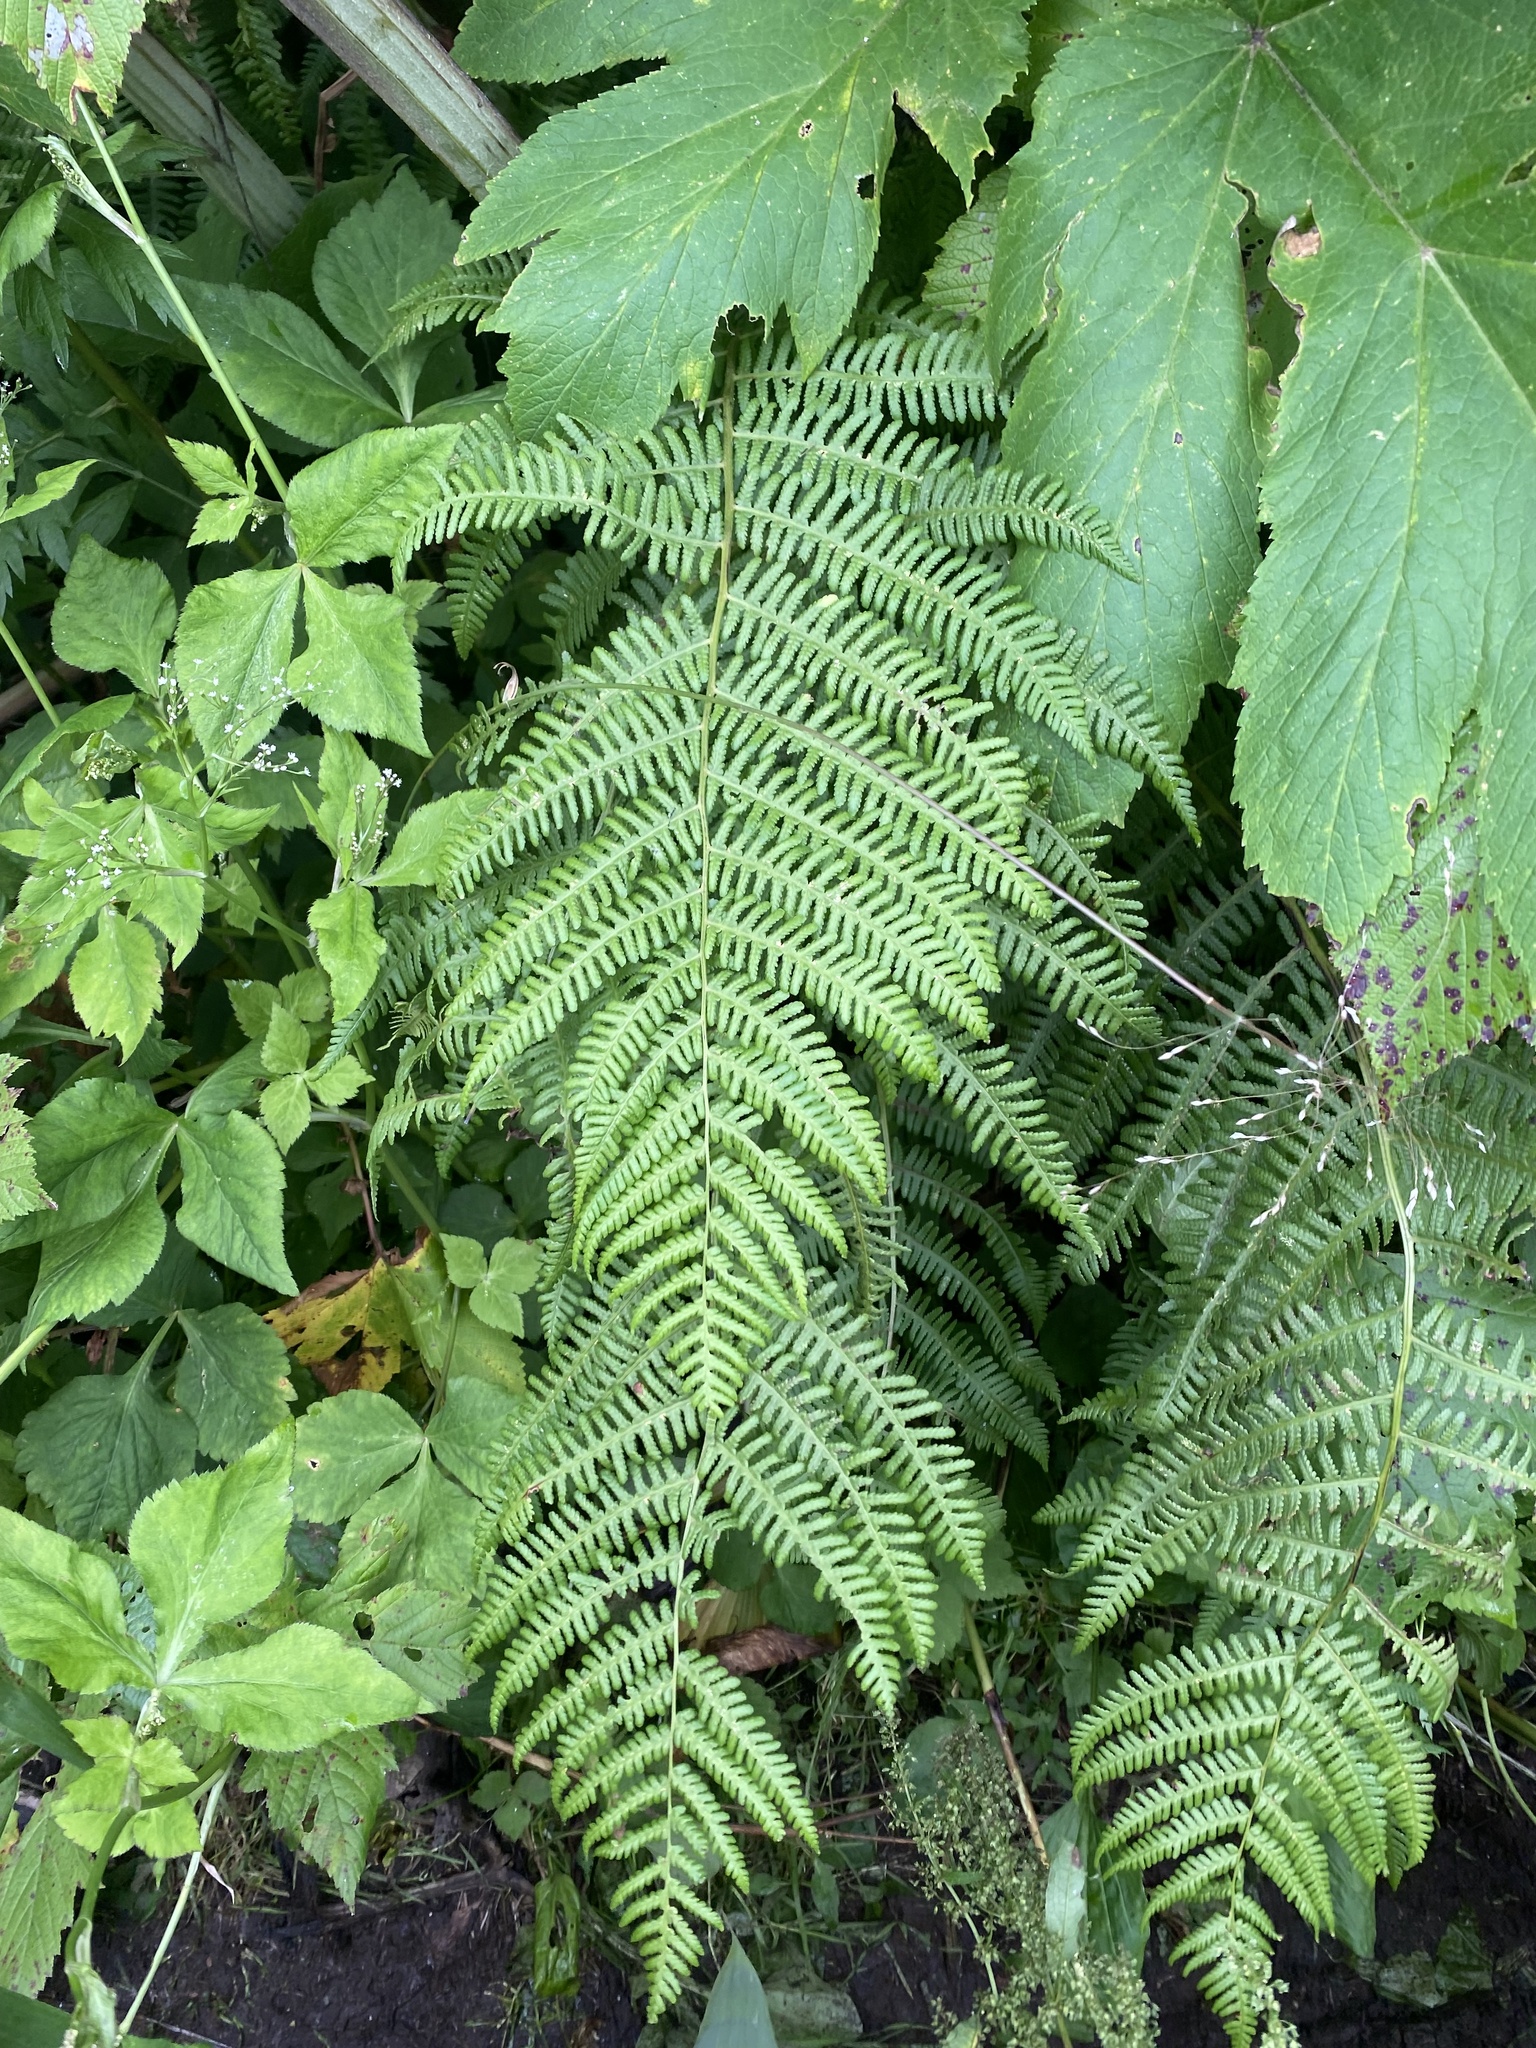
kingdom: Plantae
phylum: Tracheophyta
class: Polypodiopsida
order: Polypodiales
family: Athyriaceae
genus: Athyrium
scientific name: Athyrium filix-femina
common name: Lady fern
